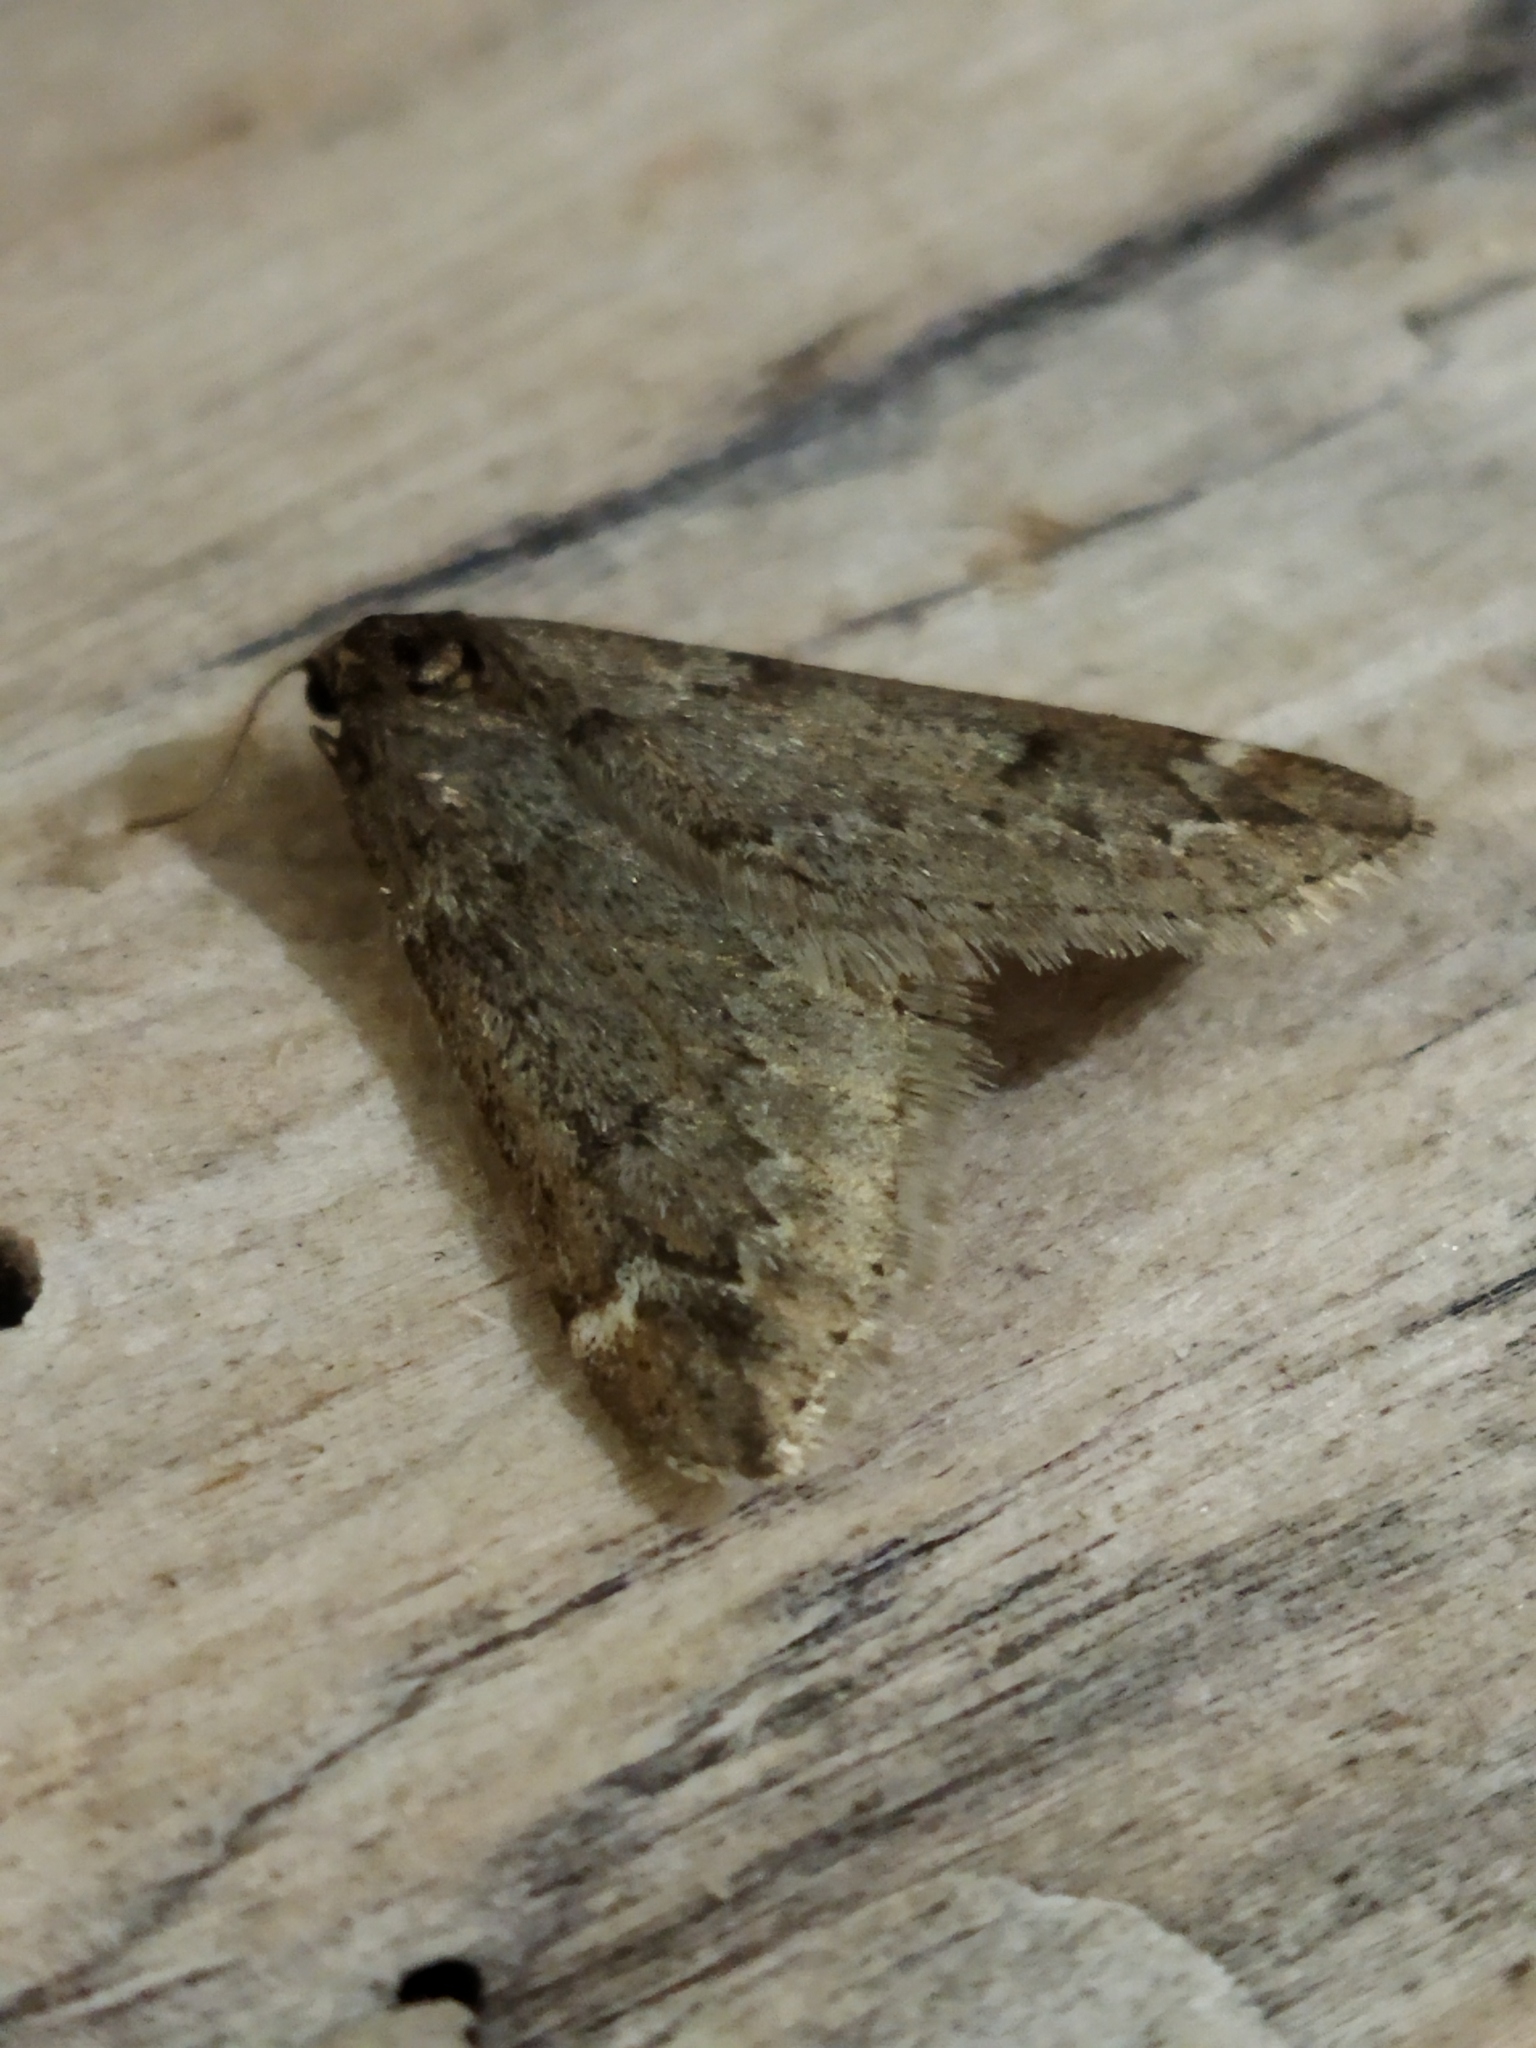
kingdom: Animalia
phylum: Arthropoda
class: Insecta
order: Lepidoptera
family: Geometridae
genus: Alsophila
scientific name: Alsophila aescularia
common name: March moth
